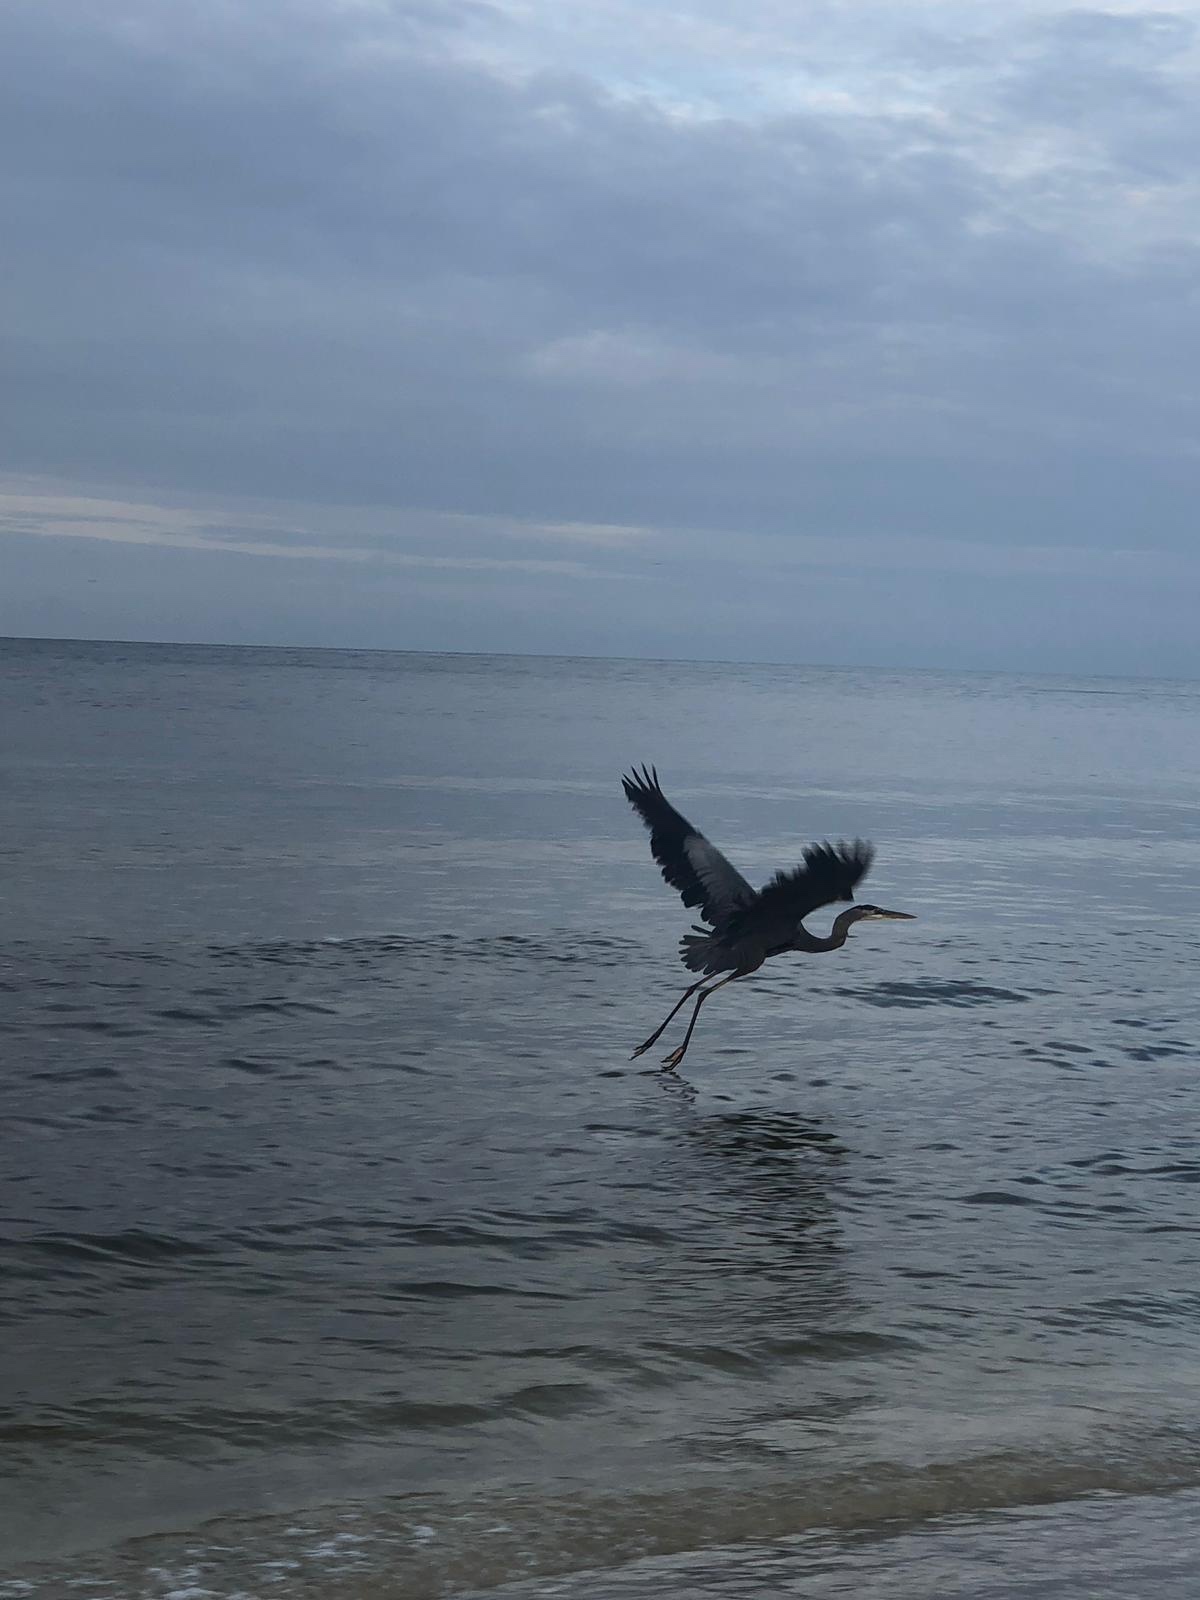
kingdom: Animalia
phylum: Chordata
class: Aves
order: Pelecaniformes
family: Ardeidae
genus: Ardea
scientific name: Ardea cinerea
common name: Grey heron
